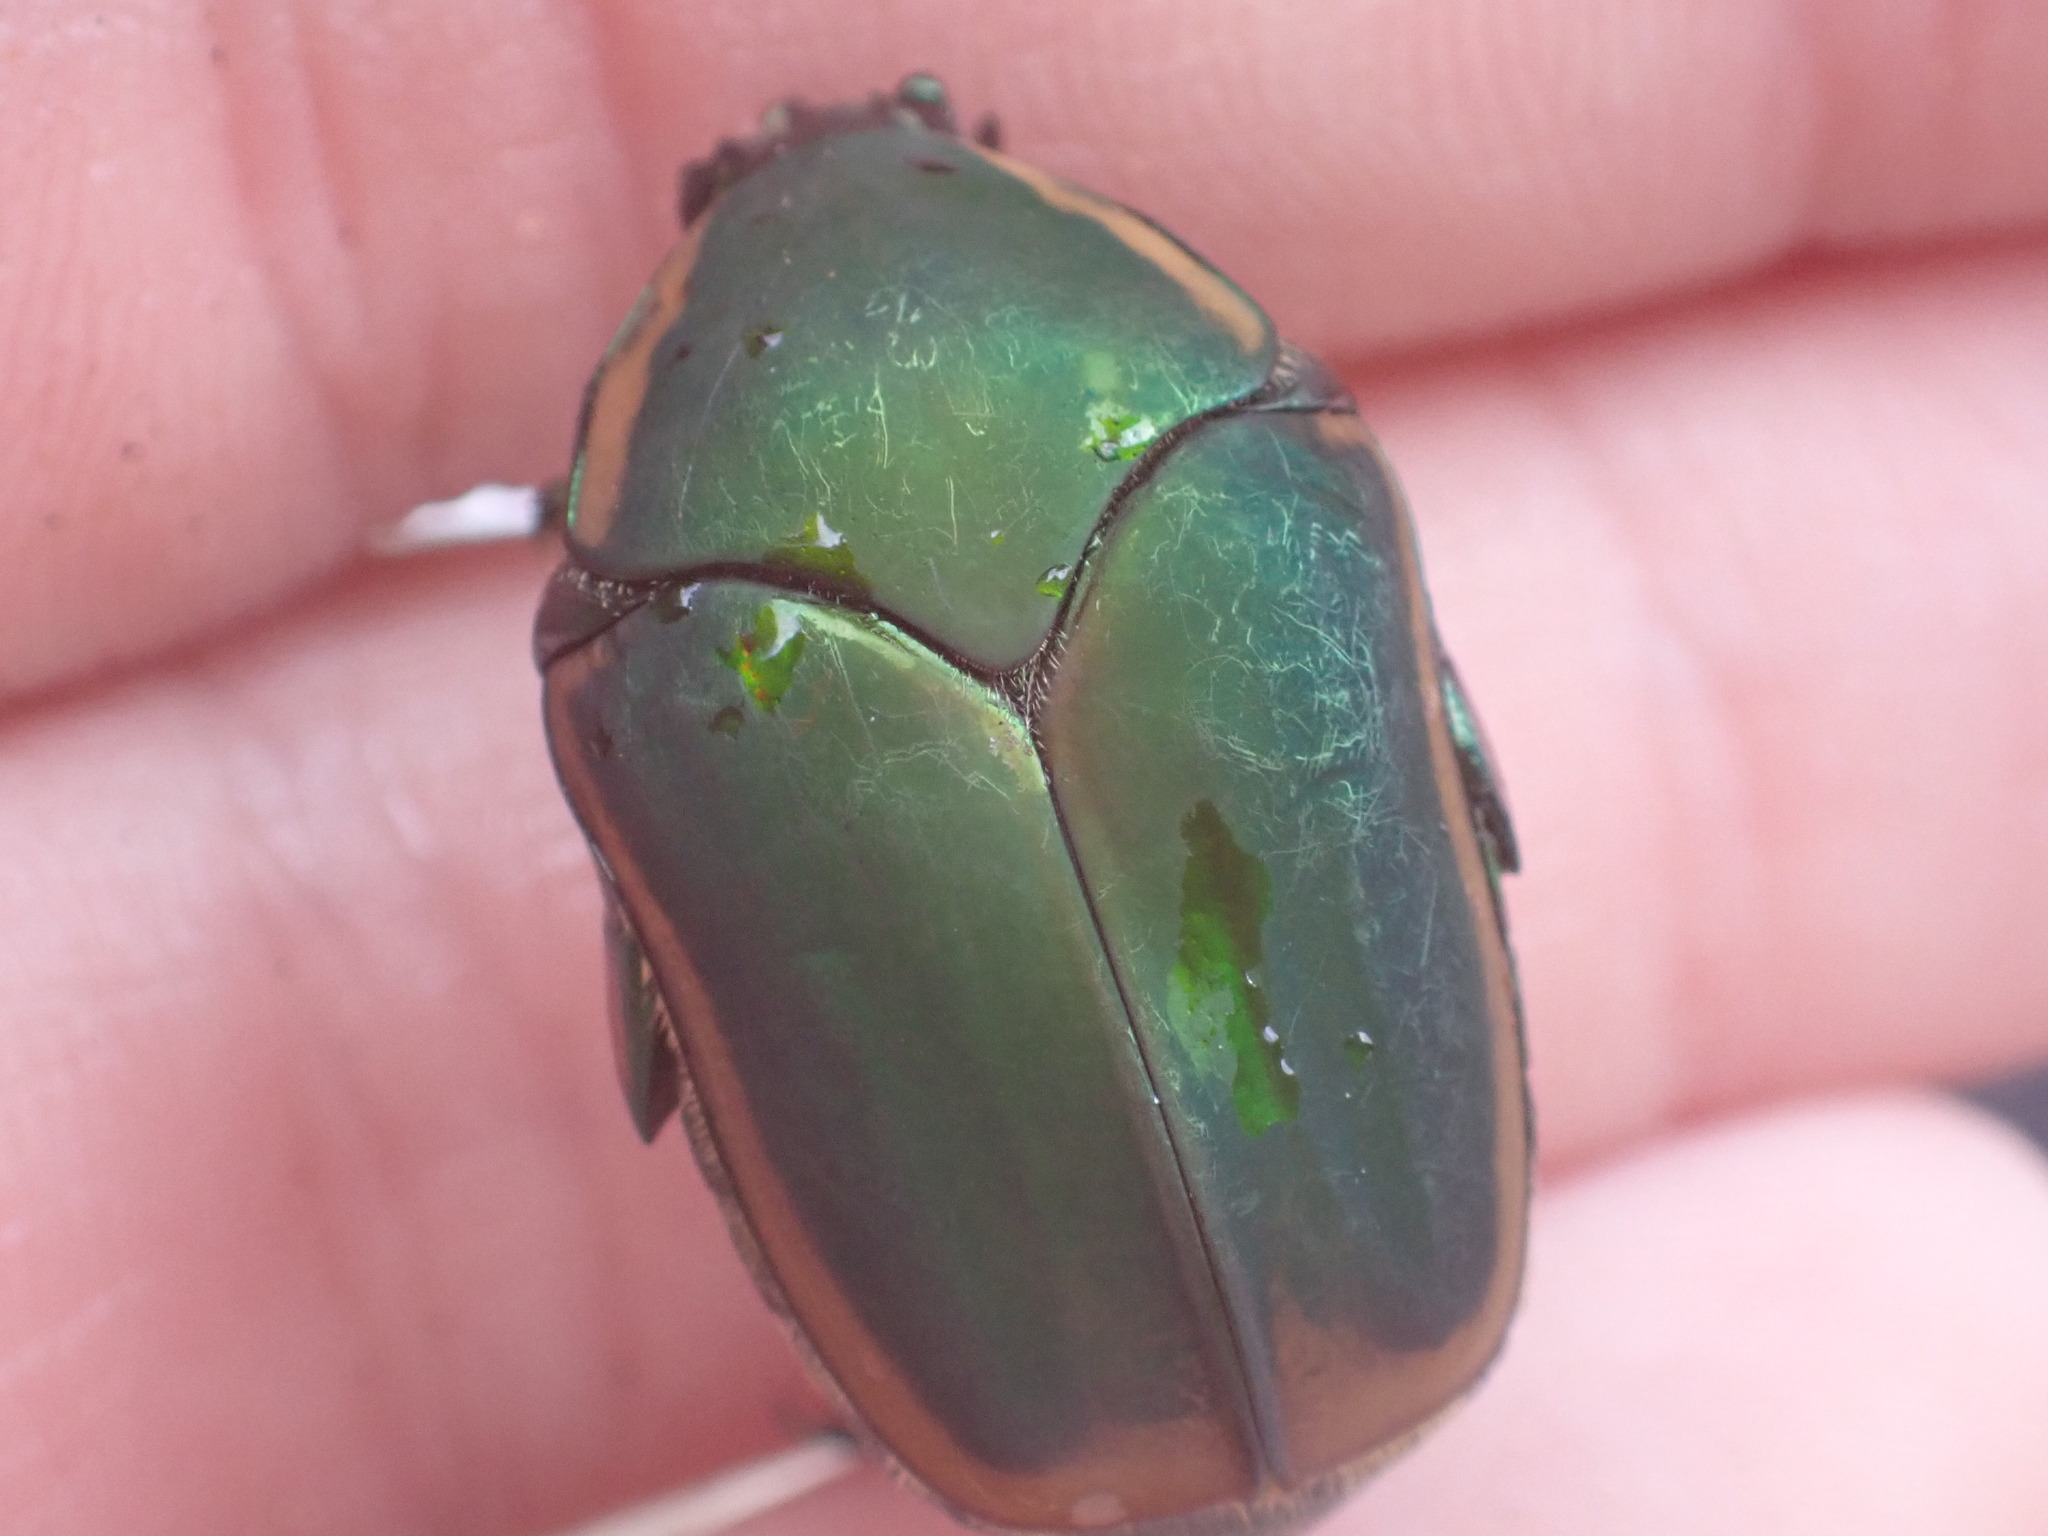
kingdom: Animalia
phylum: Arthropoda
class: Insecta
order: Coleoptera
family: Scarabaeidae
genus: Cotinis
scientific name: Cotinis nitida
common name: Common green june beetle
